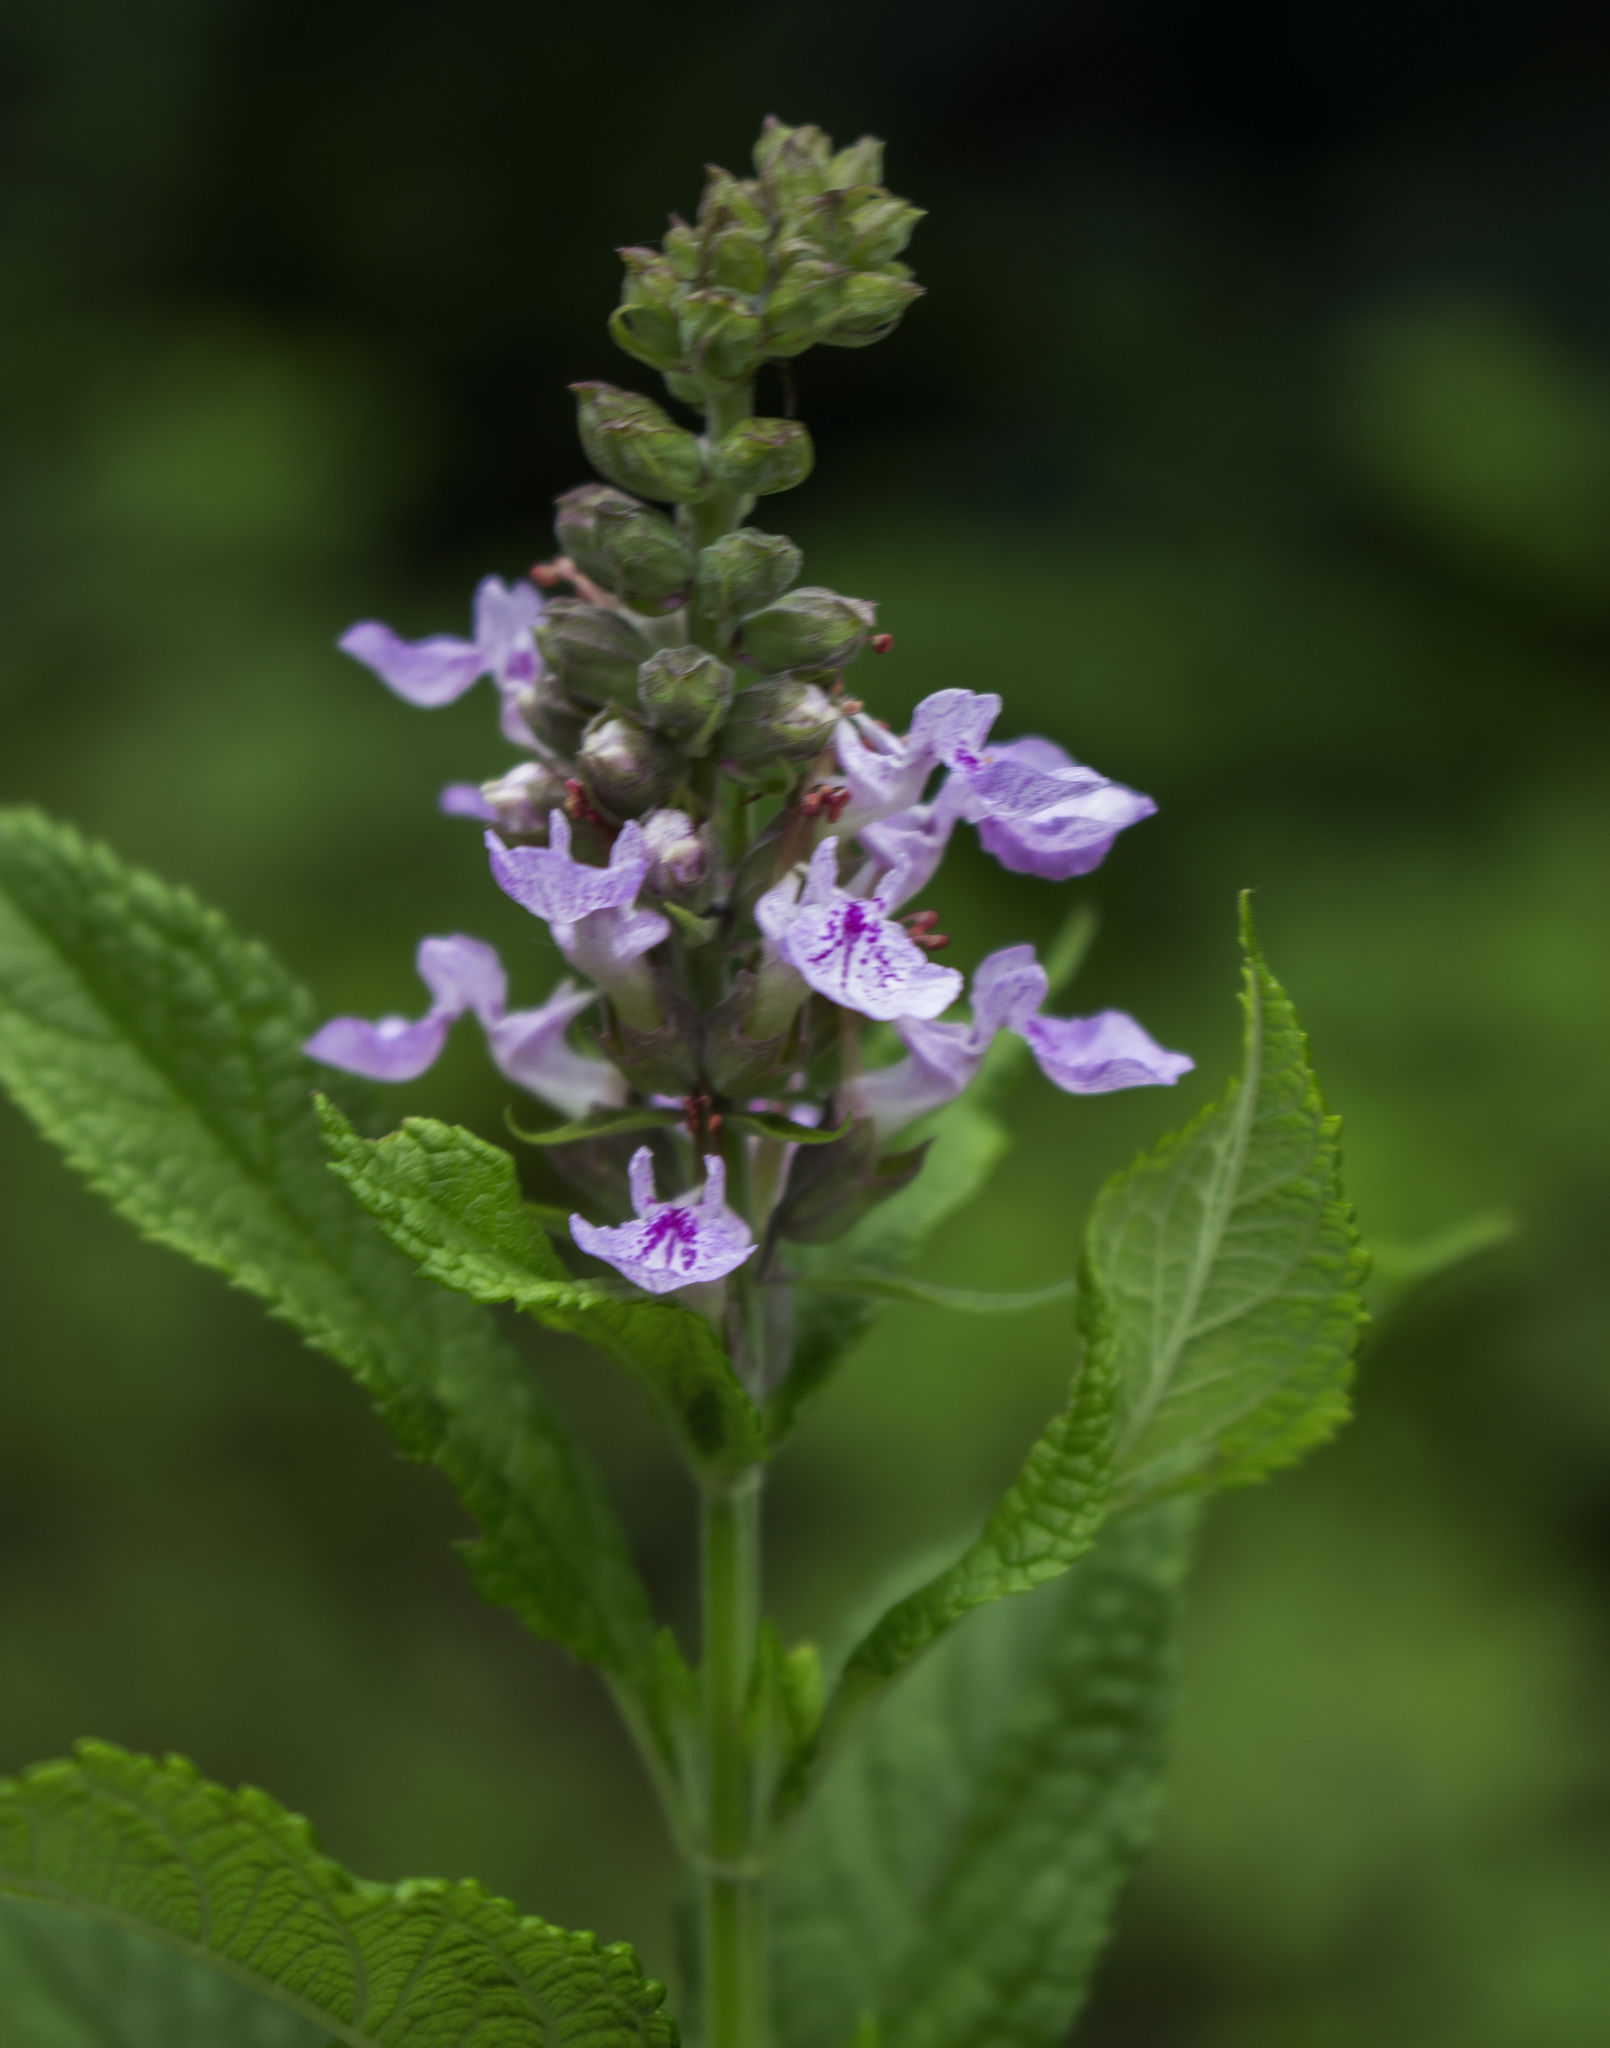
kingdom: Plantae
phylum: Tracheophyta
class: Magnoliopsida
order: Lamiales
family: Lamiaceae
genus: Teucrium
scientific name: Teucrium canadense
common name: American germander
